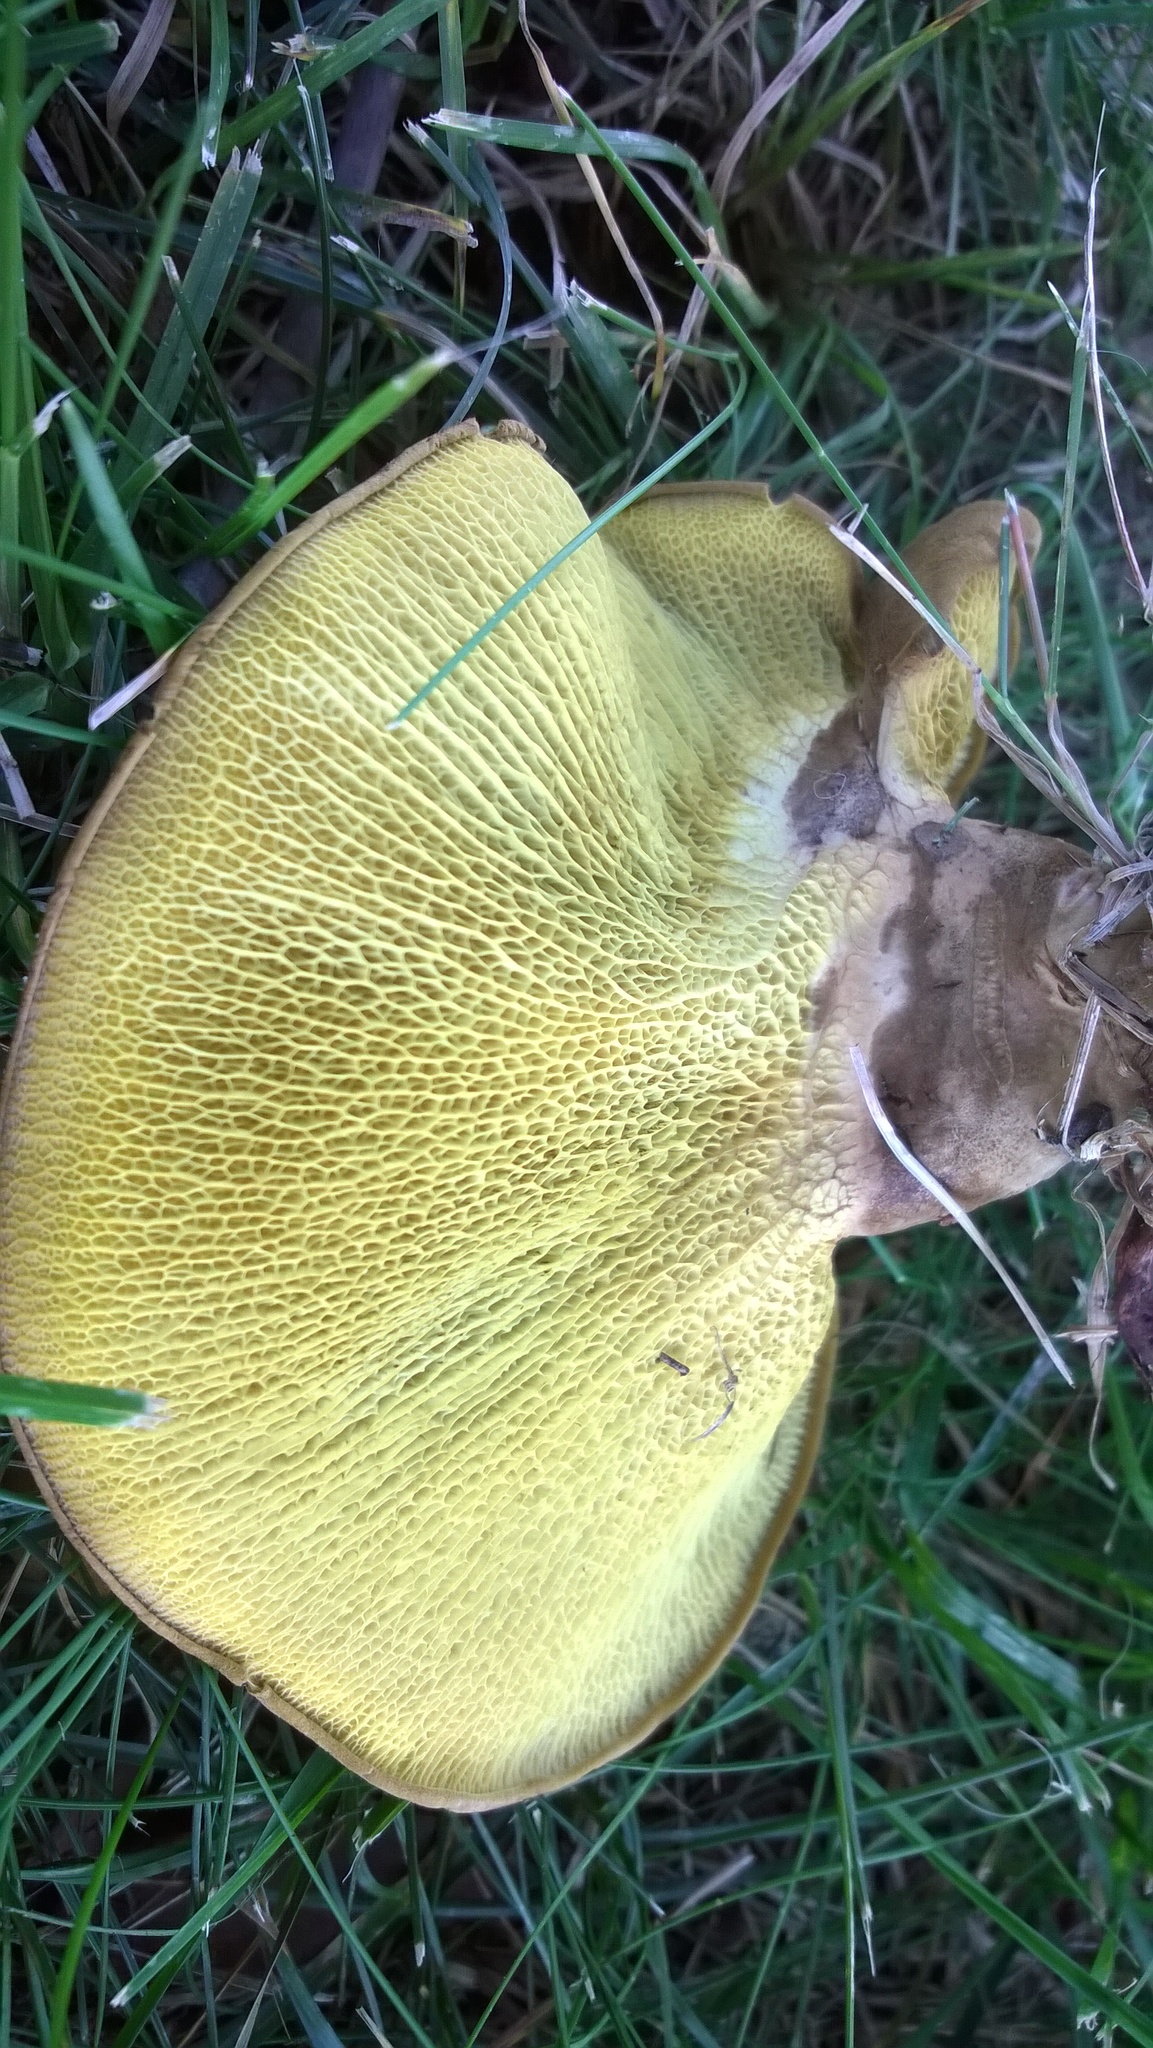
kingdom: Fungi
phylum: Basidiomycota
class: Agaricomycetes
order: Boletales
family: Boletinellaceae
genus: Boletinellus
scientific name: Boletinellus merulioides
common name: Ash tree bolete
